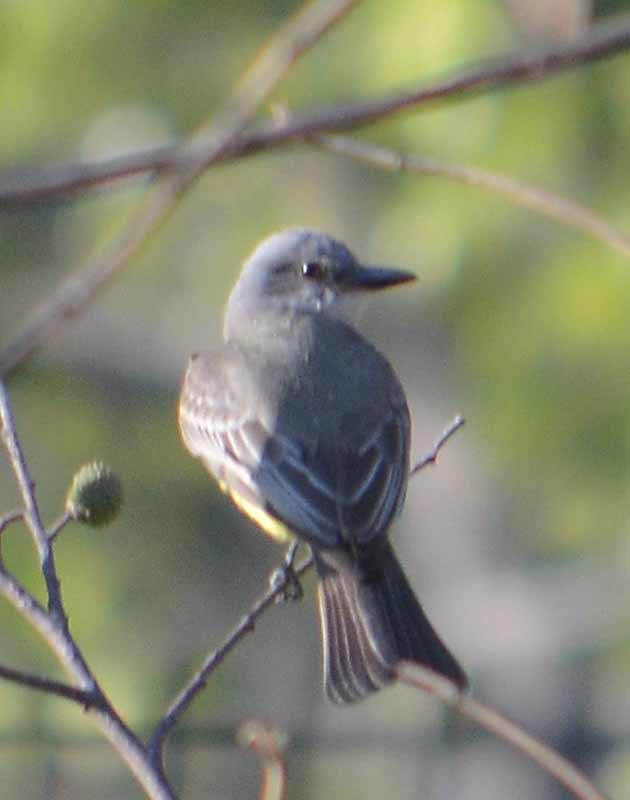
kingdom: Animalia
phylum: Chordata
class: Aves
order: Passeriformes
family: Tyrannidae
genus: Tyrannus
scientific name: Tyrannus melancholicus
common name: Tropical kingbird
